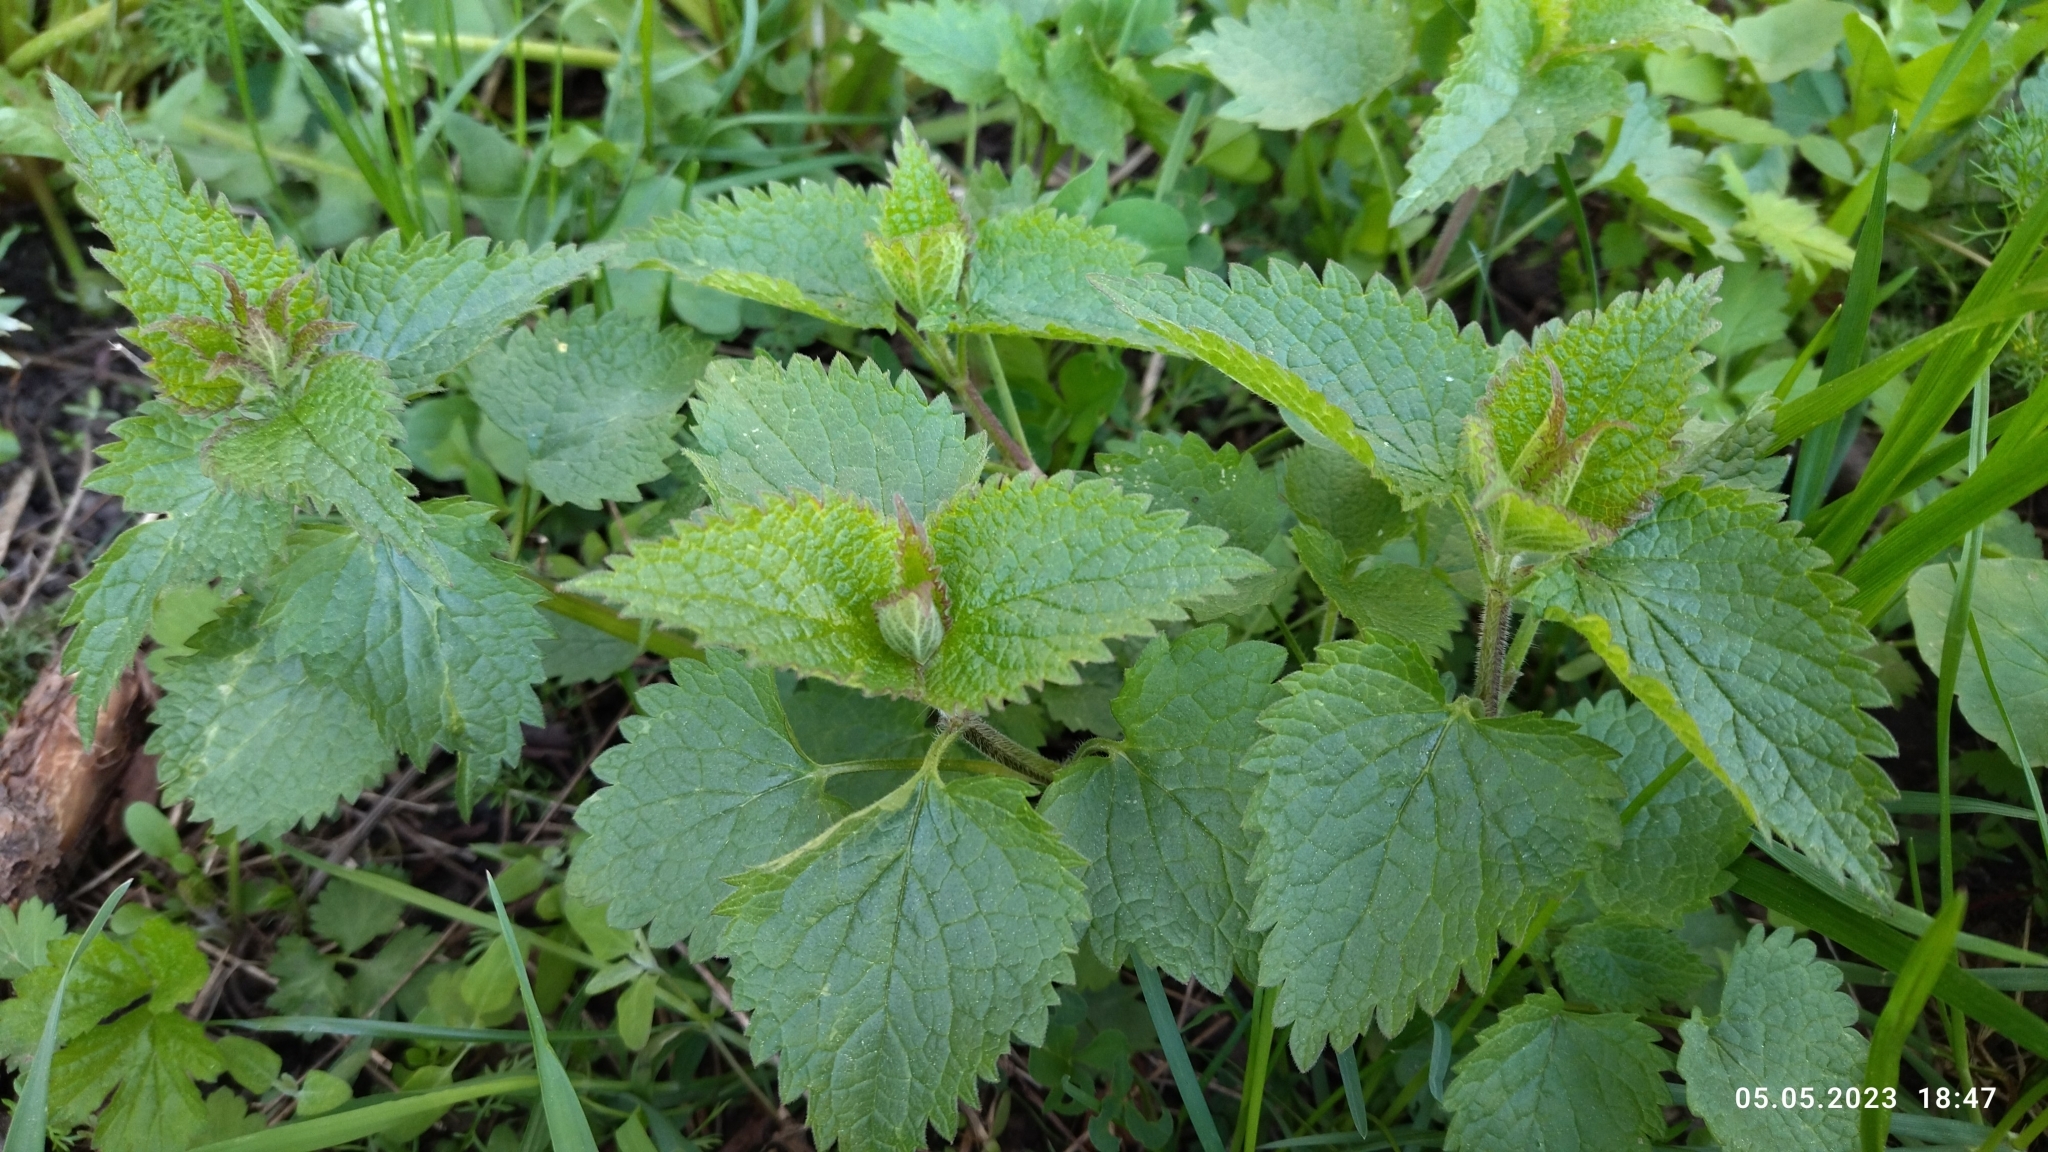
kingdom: Plantae
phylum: Tracheophyta
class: Magnoliopsida
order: Lamiales
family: Lamiaceae
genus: Lamium
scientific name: Lamium album
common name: White dead-nettle
